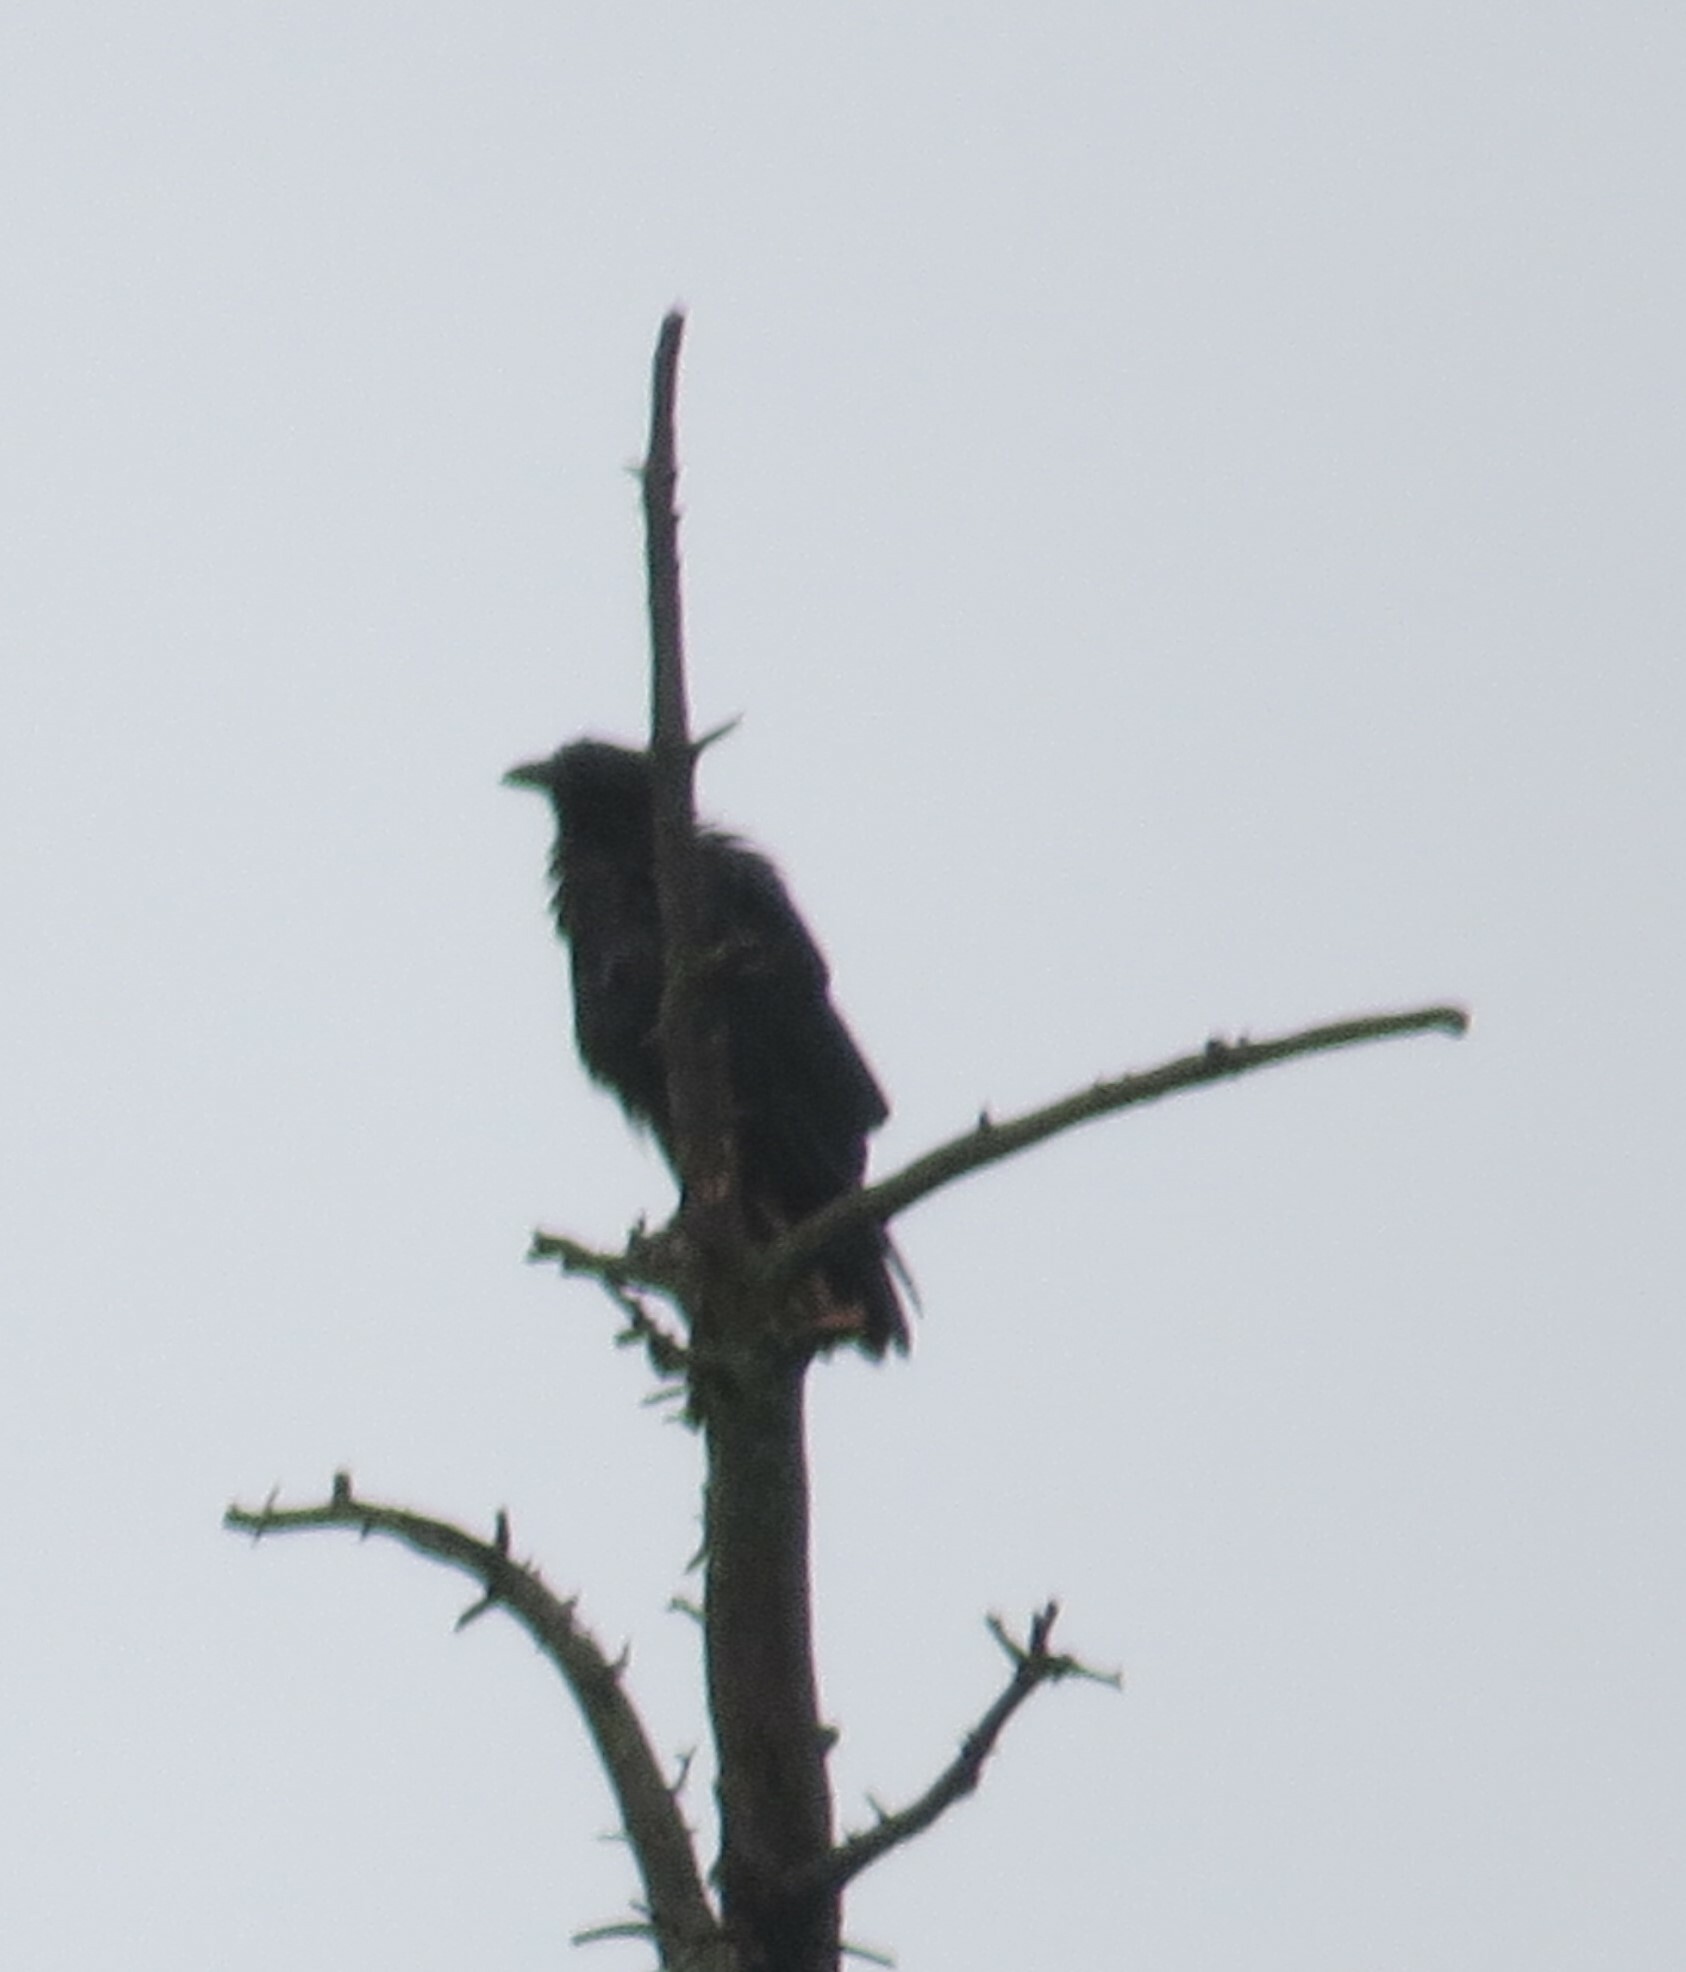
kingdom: Animalia
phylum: Chordata
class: Aves
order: Passeriformes
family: Corvidae
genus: Corvus
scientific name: Corvus brachyrhynchos
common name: American crow
